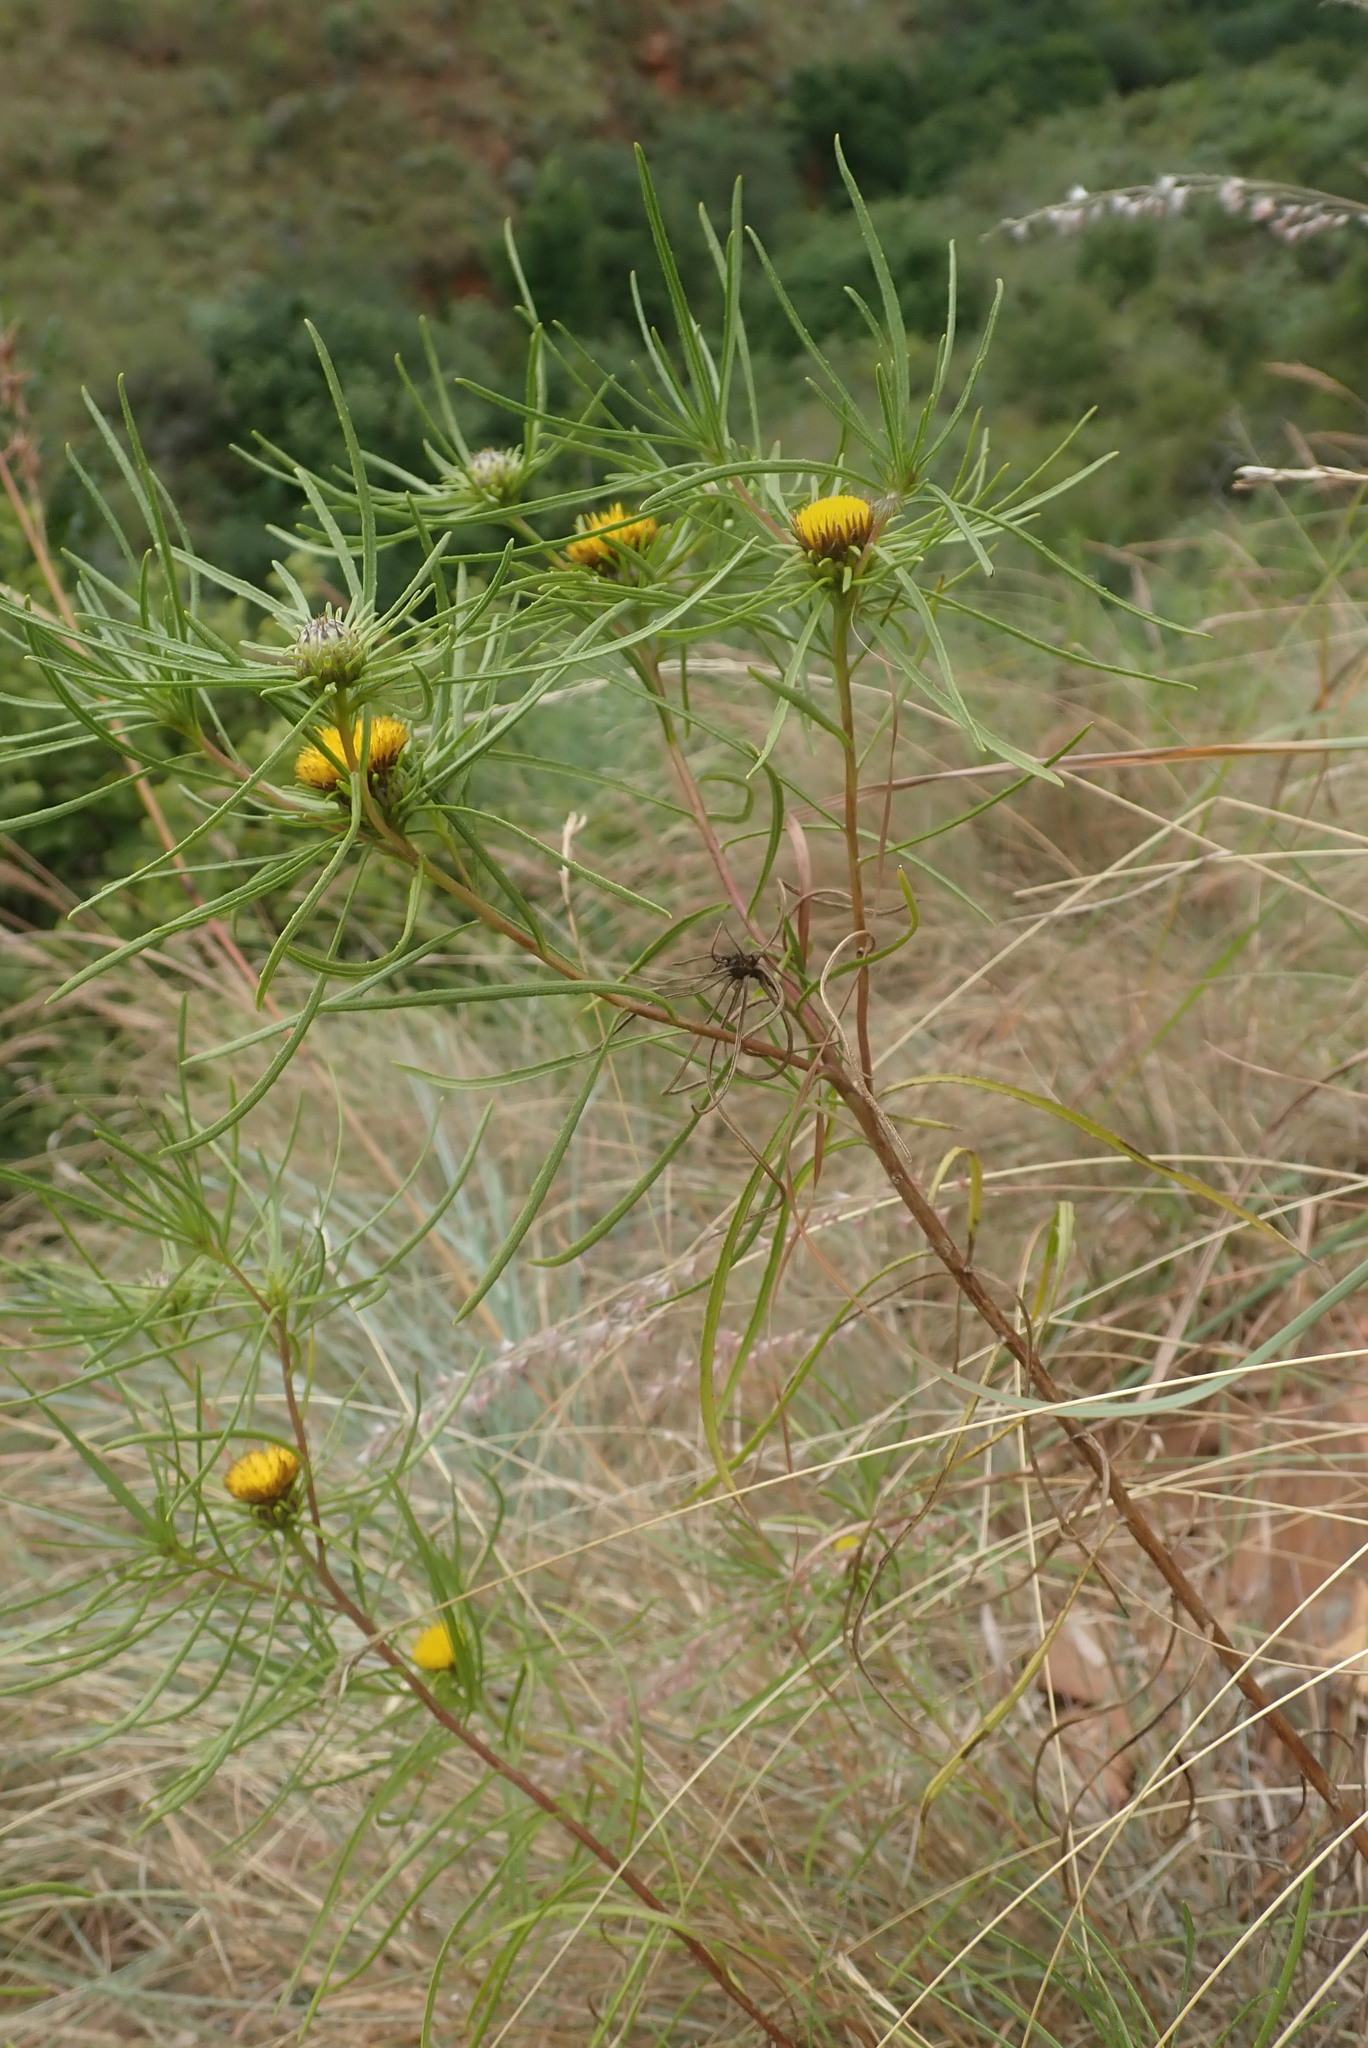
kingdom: Plantae
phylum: Tracheophyta
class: Magnoliopsida
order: Asterales
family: Asteraceae
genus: Geigeria
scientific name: Geigeria burkei
